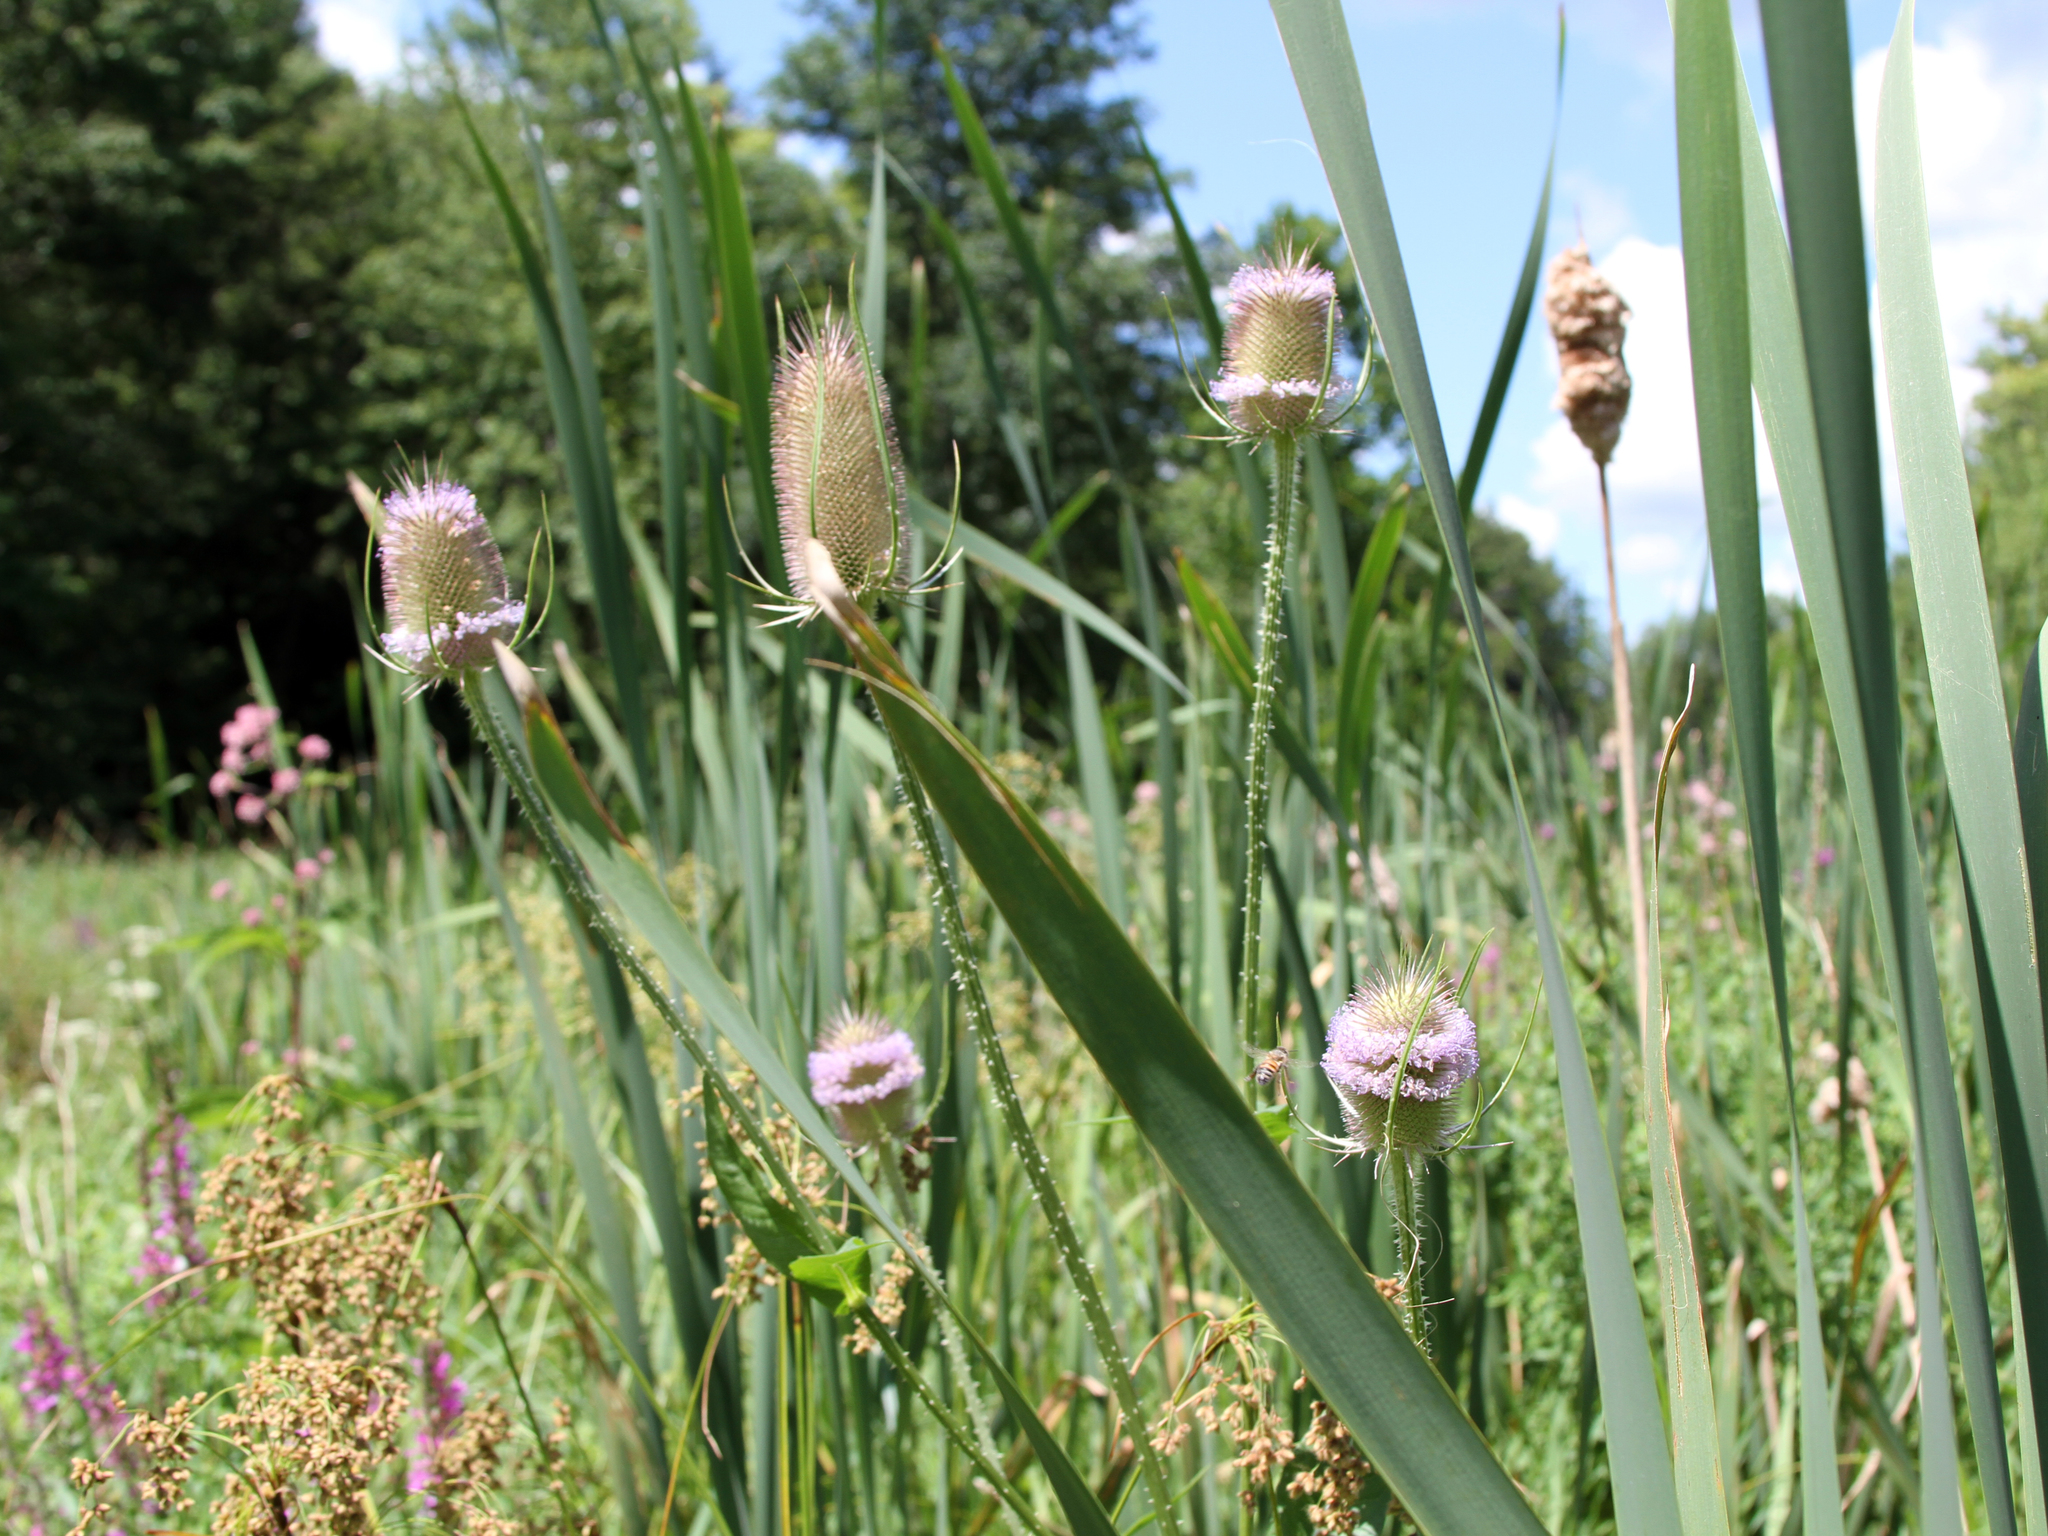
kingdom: Plantae
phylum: Tracheophyta
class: Magnoliopsida
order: Dipsacales
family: Caprifoliaceae
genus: Dipsacus
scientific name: Dipsacus fullonum
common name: Teasel
